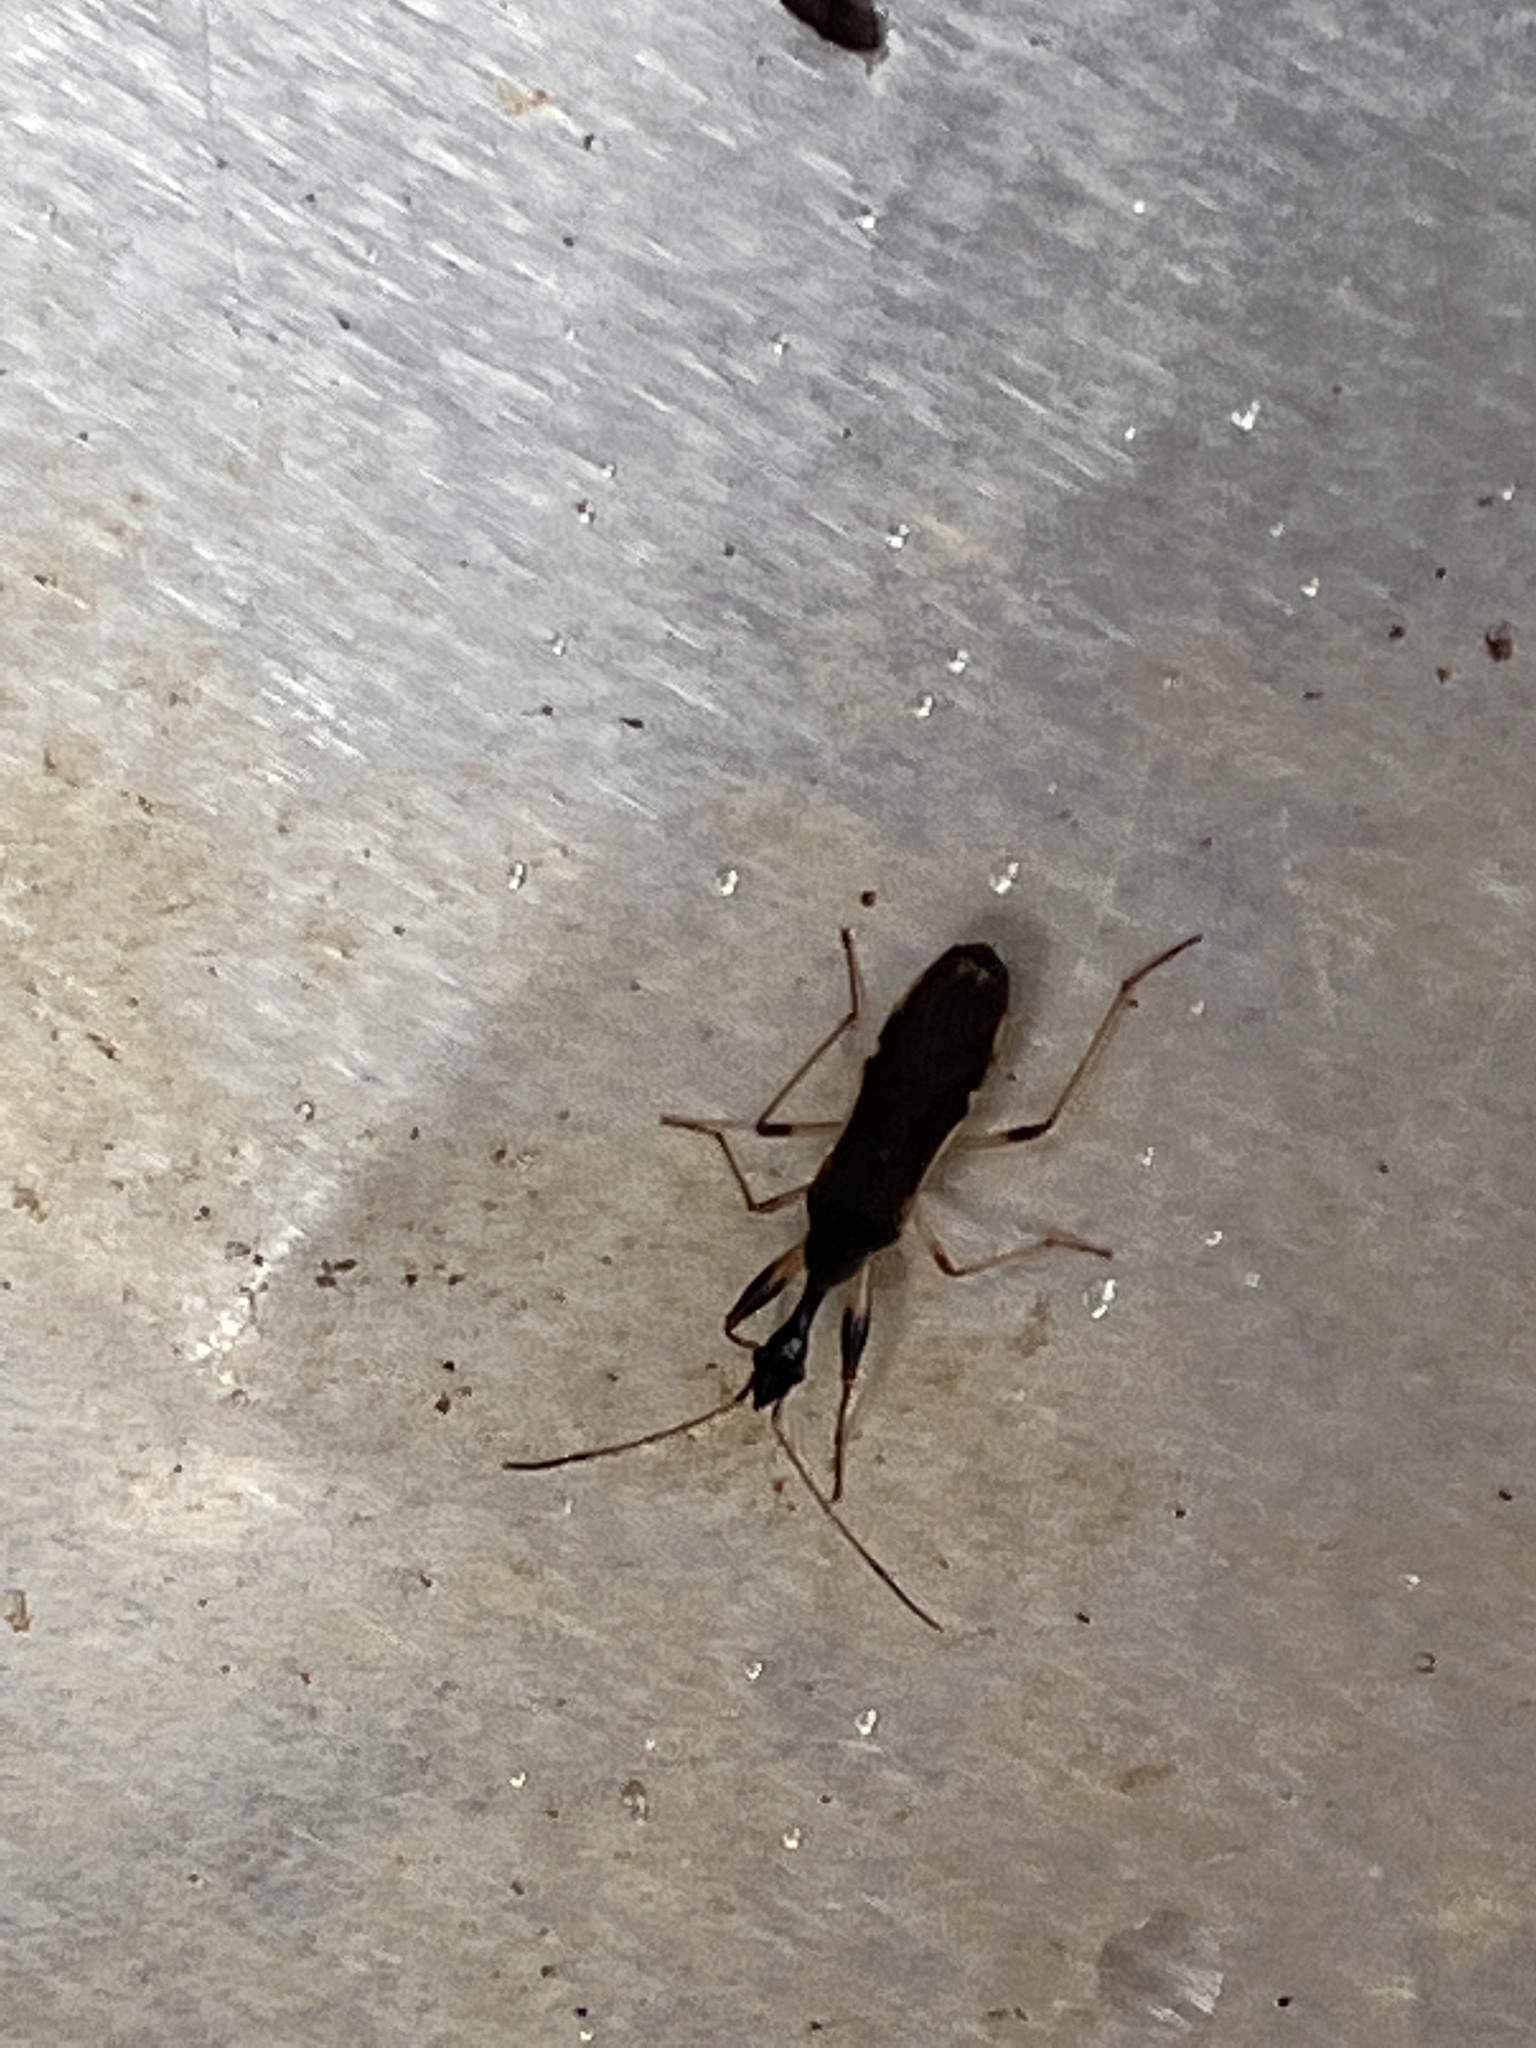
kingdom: Animalia
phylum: Arthropoda
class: Insecta
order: Hemiptera
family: Rhyparochromidae
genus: Myodocha
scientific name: Myodocha serripes
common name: Long-necked seed bug
